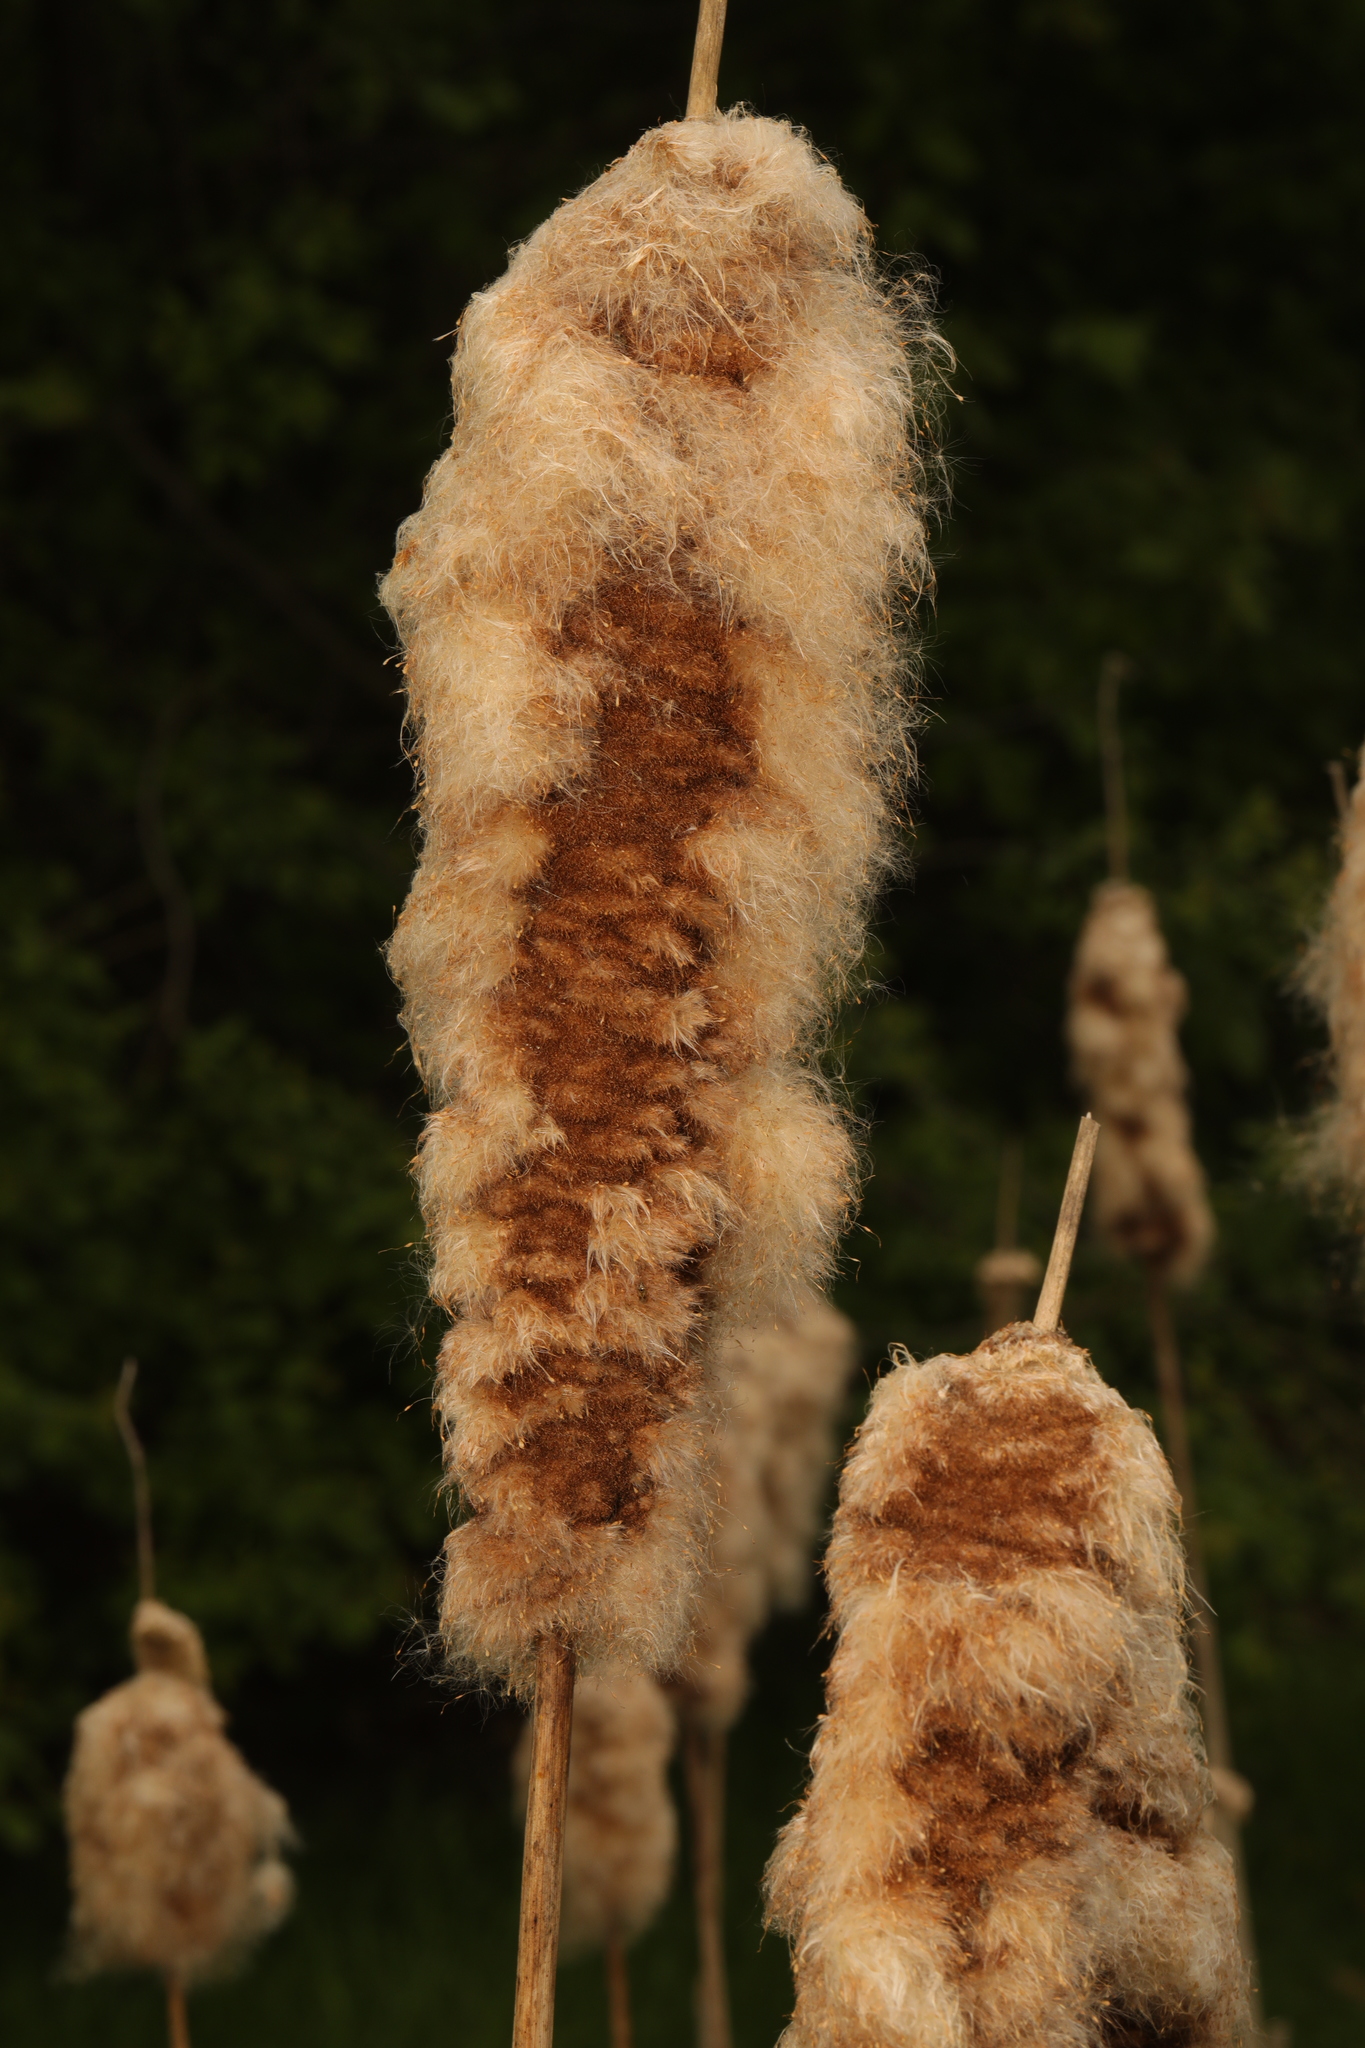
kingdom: Plantae
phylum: Tracheophyta
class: Liliopsida
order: Poales
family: Typhaceae
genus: Typha
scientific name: Typha latifolia
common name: Broadleaf cattail
